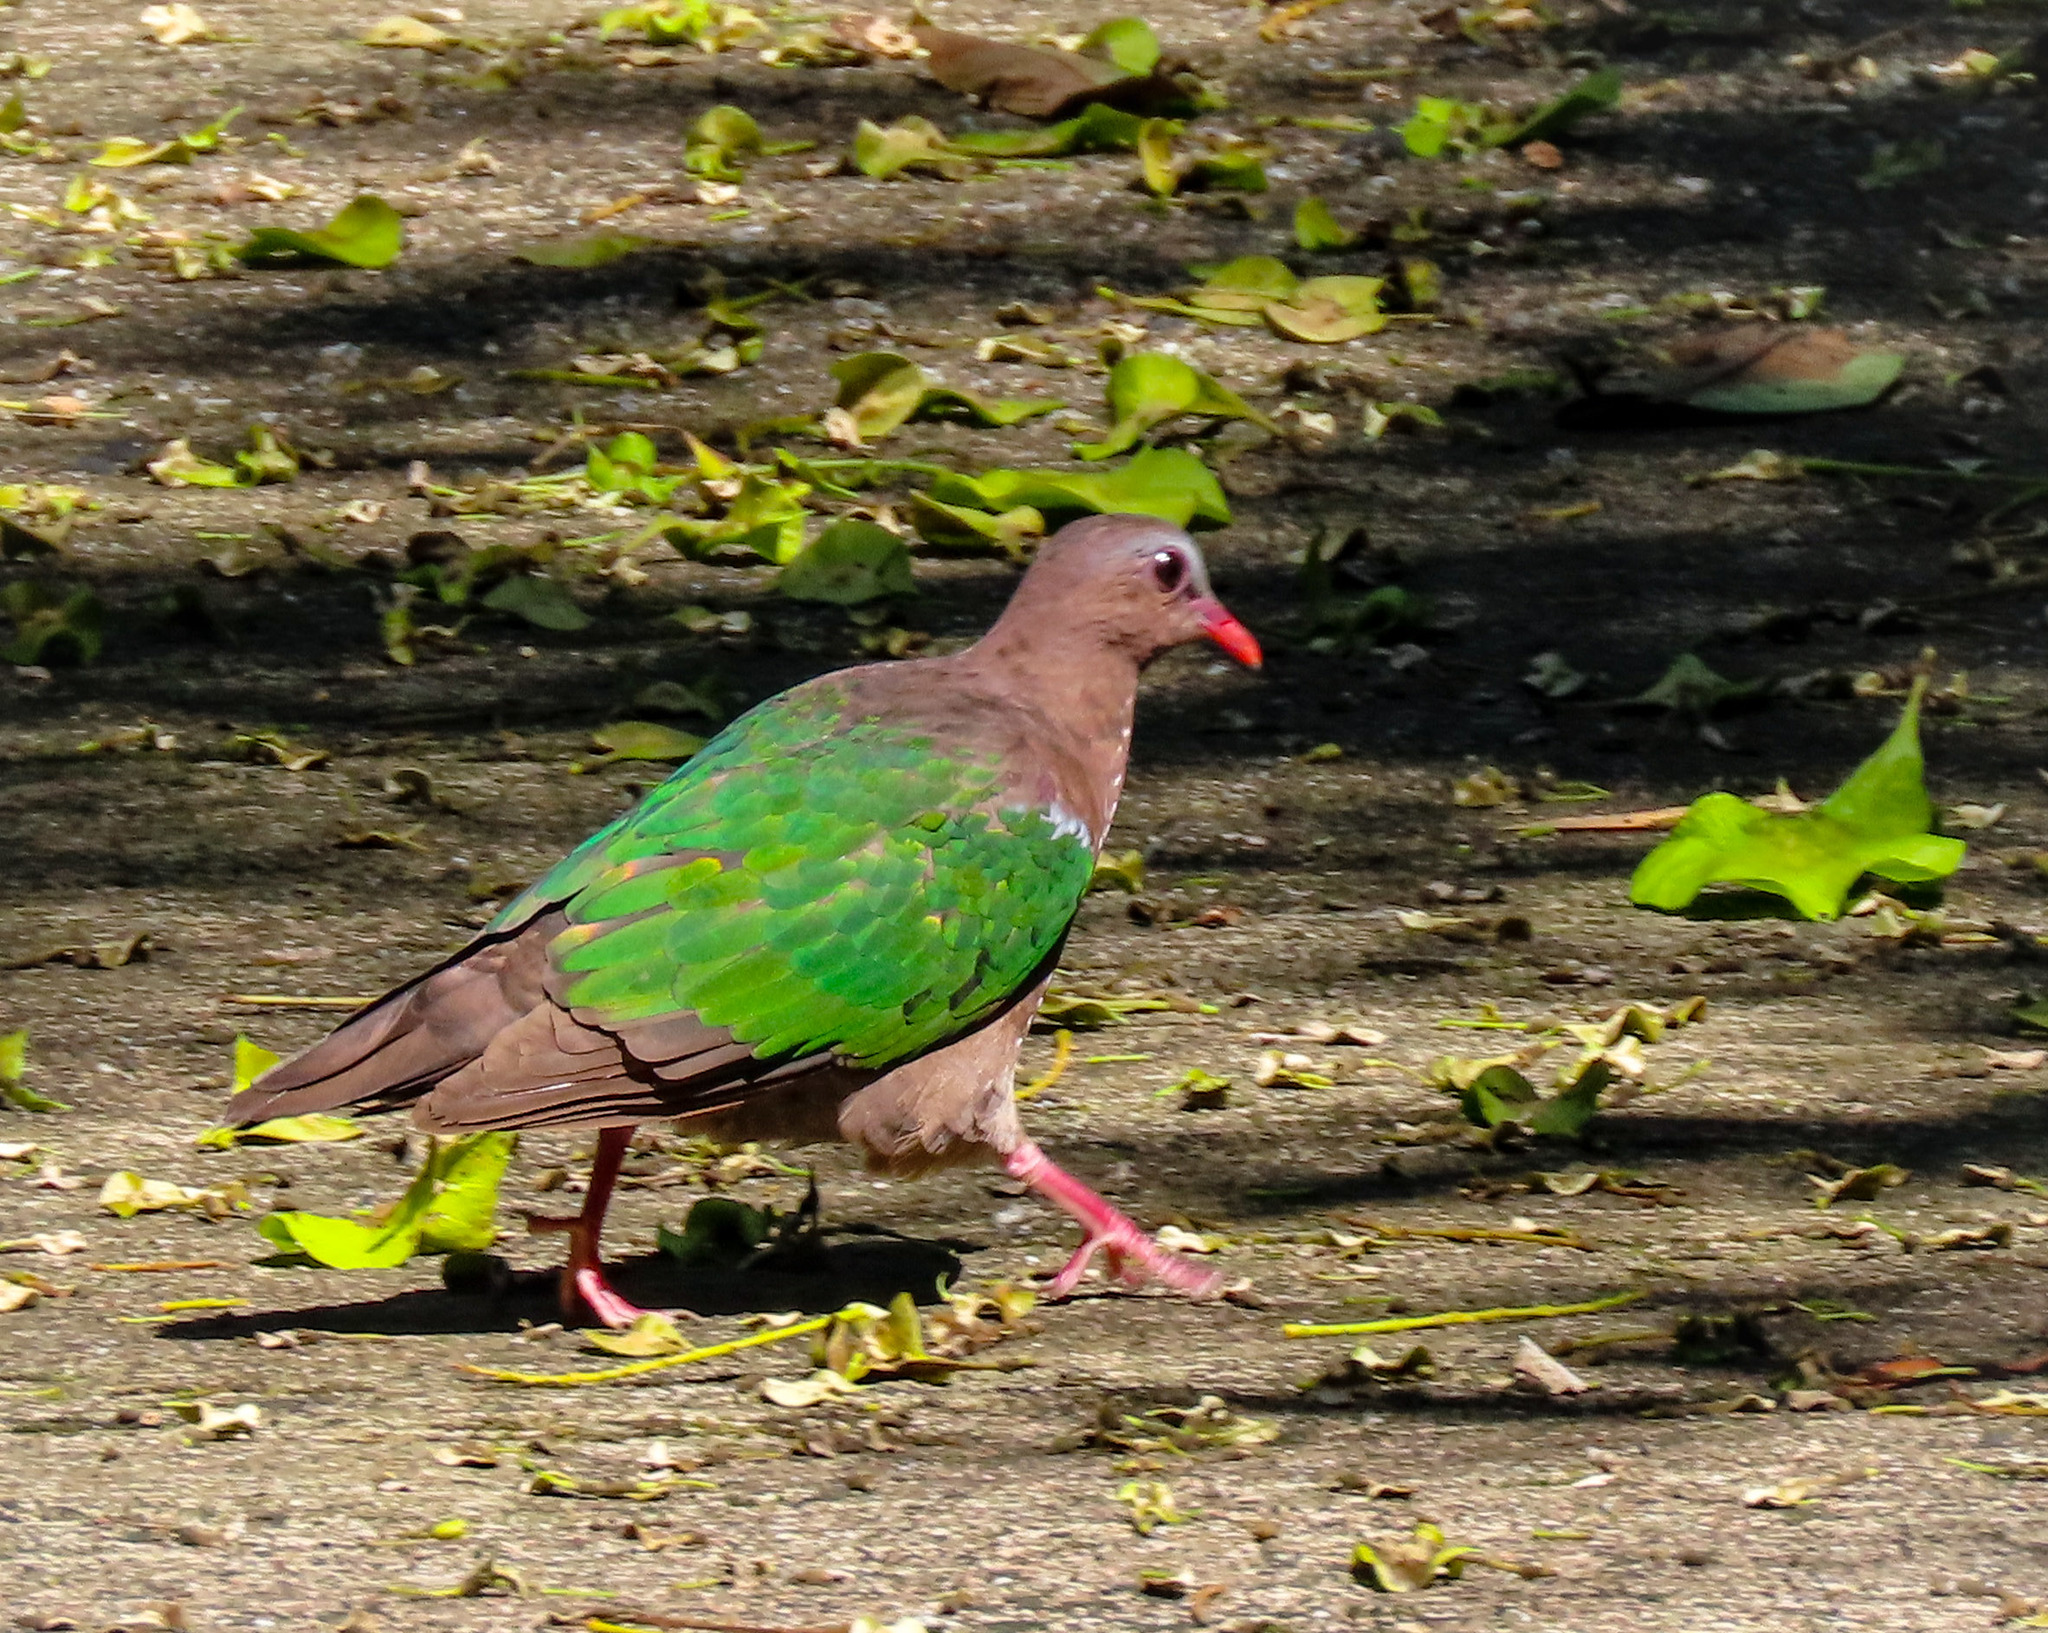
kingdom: Animalia
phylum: Chordata
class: Aves
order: Columbiformes
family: Columbidae
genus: Chalcophaps
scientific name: Chalcophaps indica
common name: Common emerald dove
